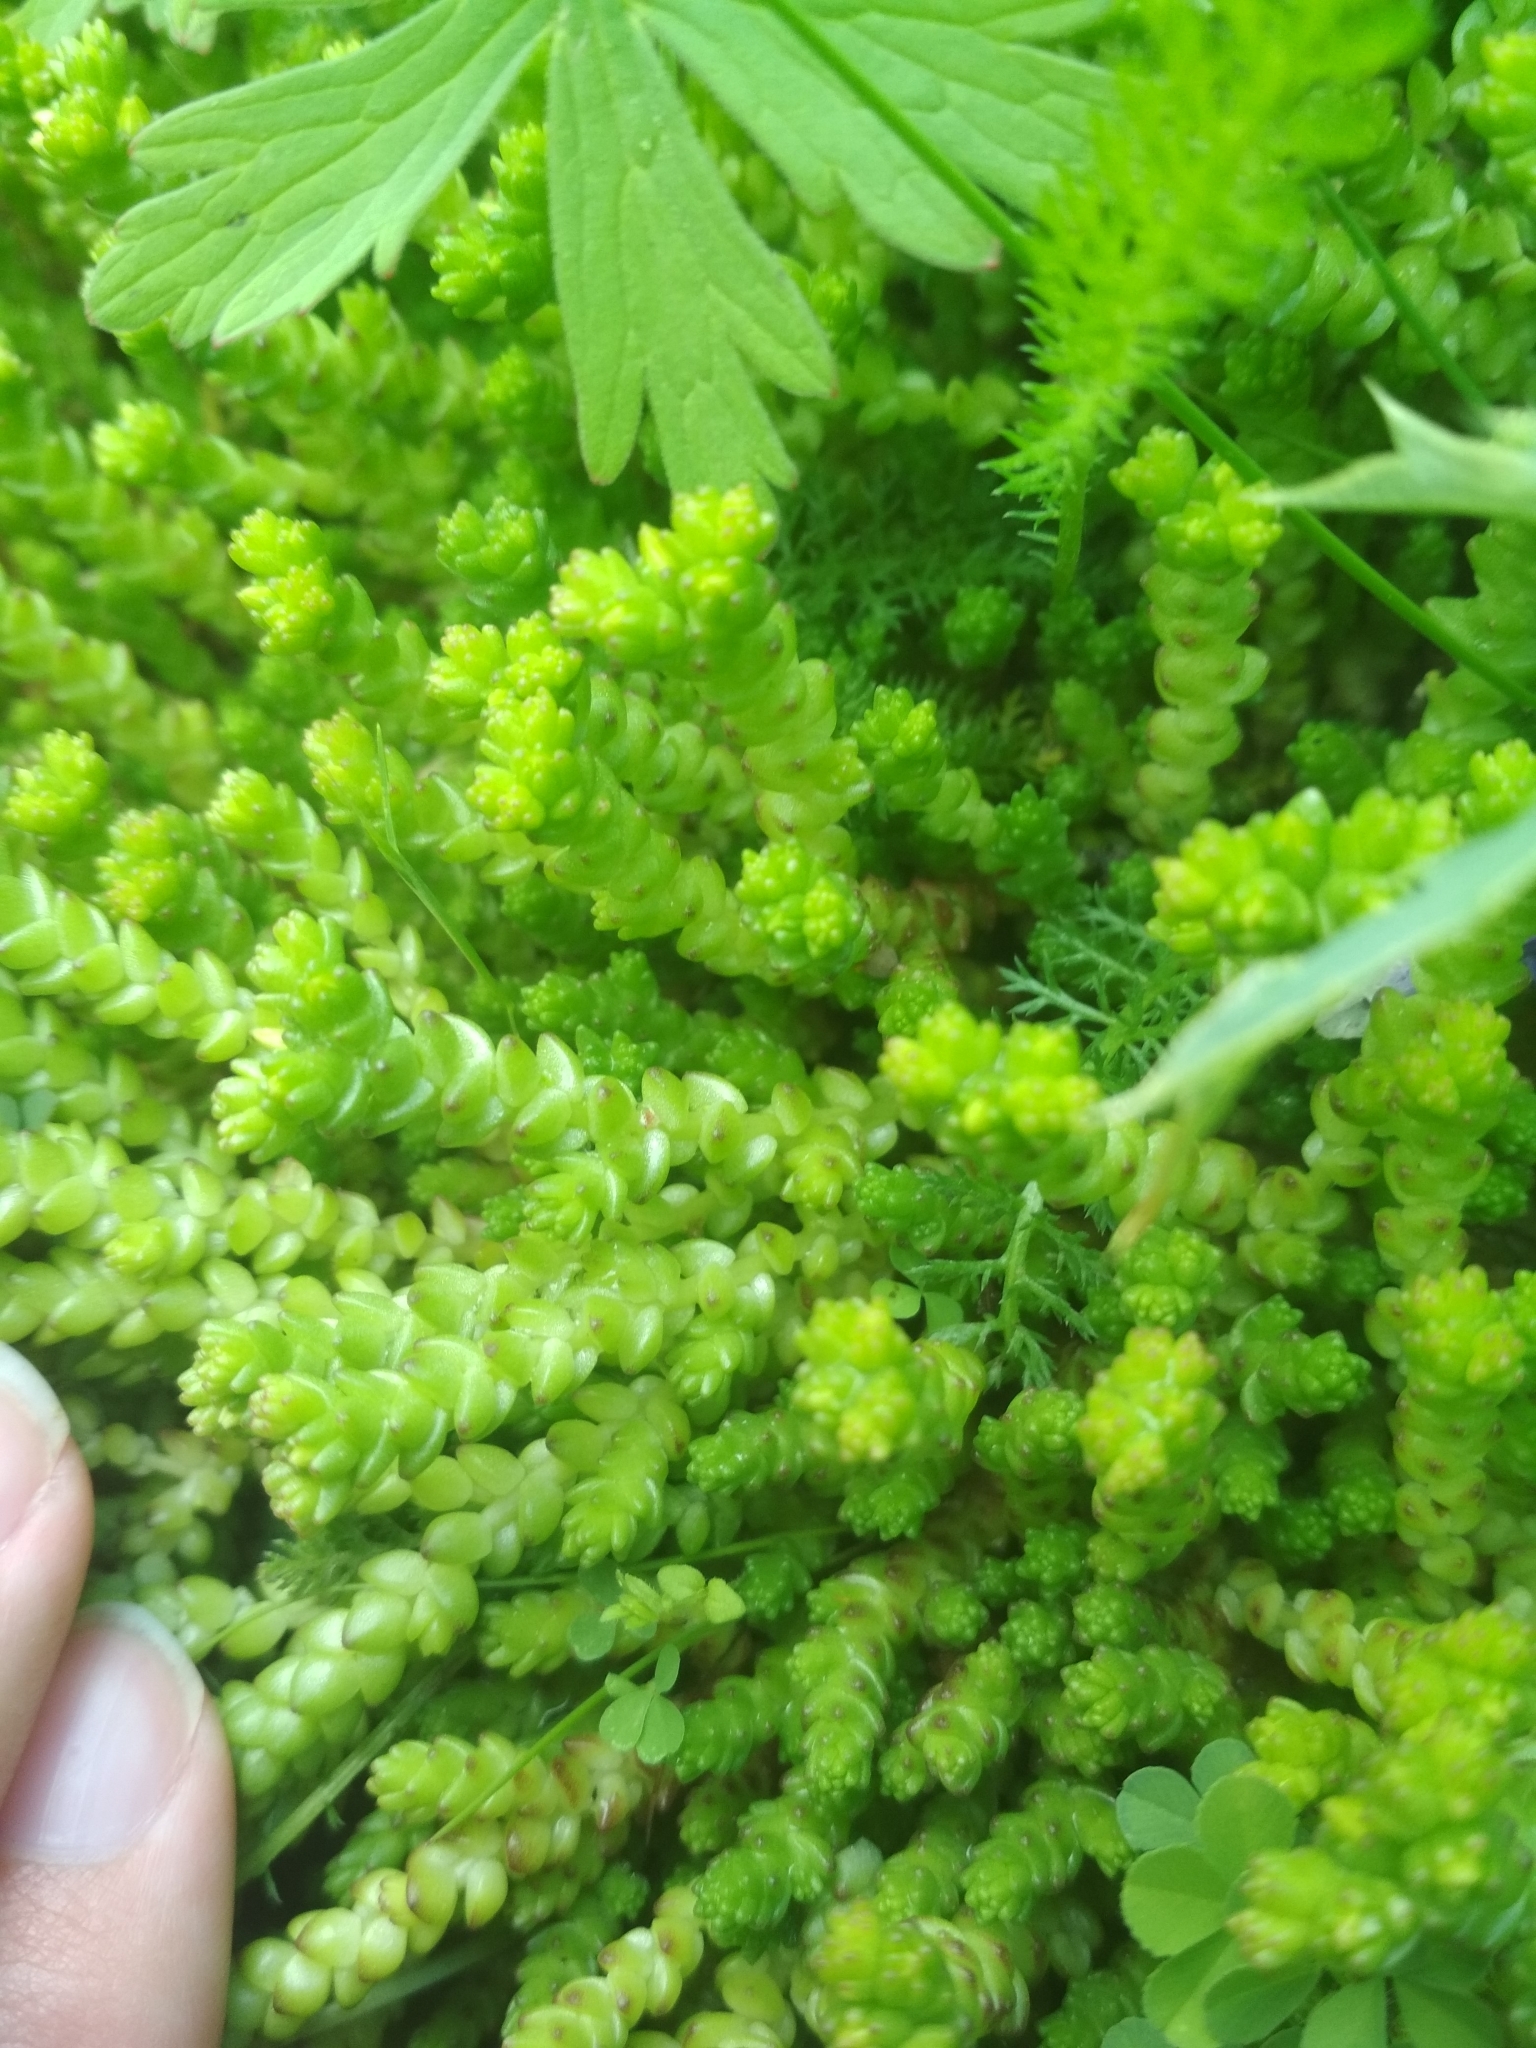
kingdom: Plantae
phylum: Tracheophyta
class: Magnoliopsida
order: Saxifragales
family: Crassulaceae
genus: Sedum
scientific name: Sedum acre
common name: Biting stonecrop
